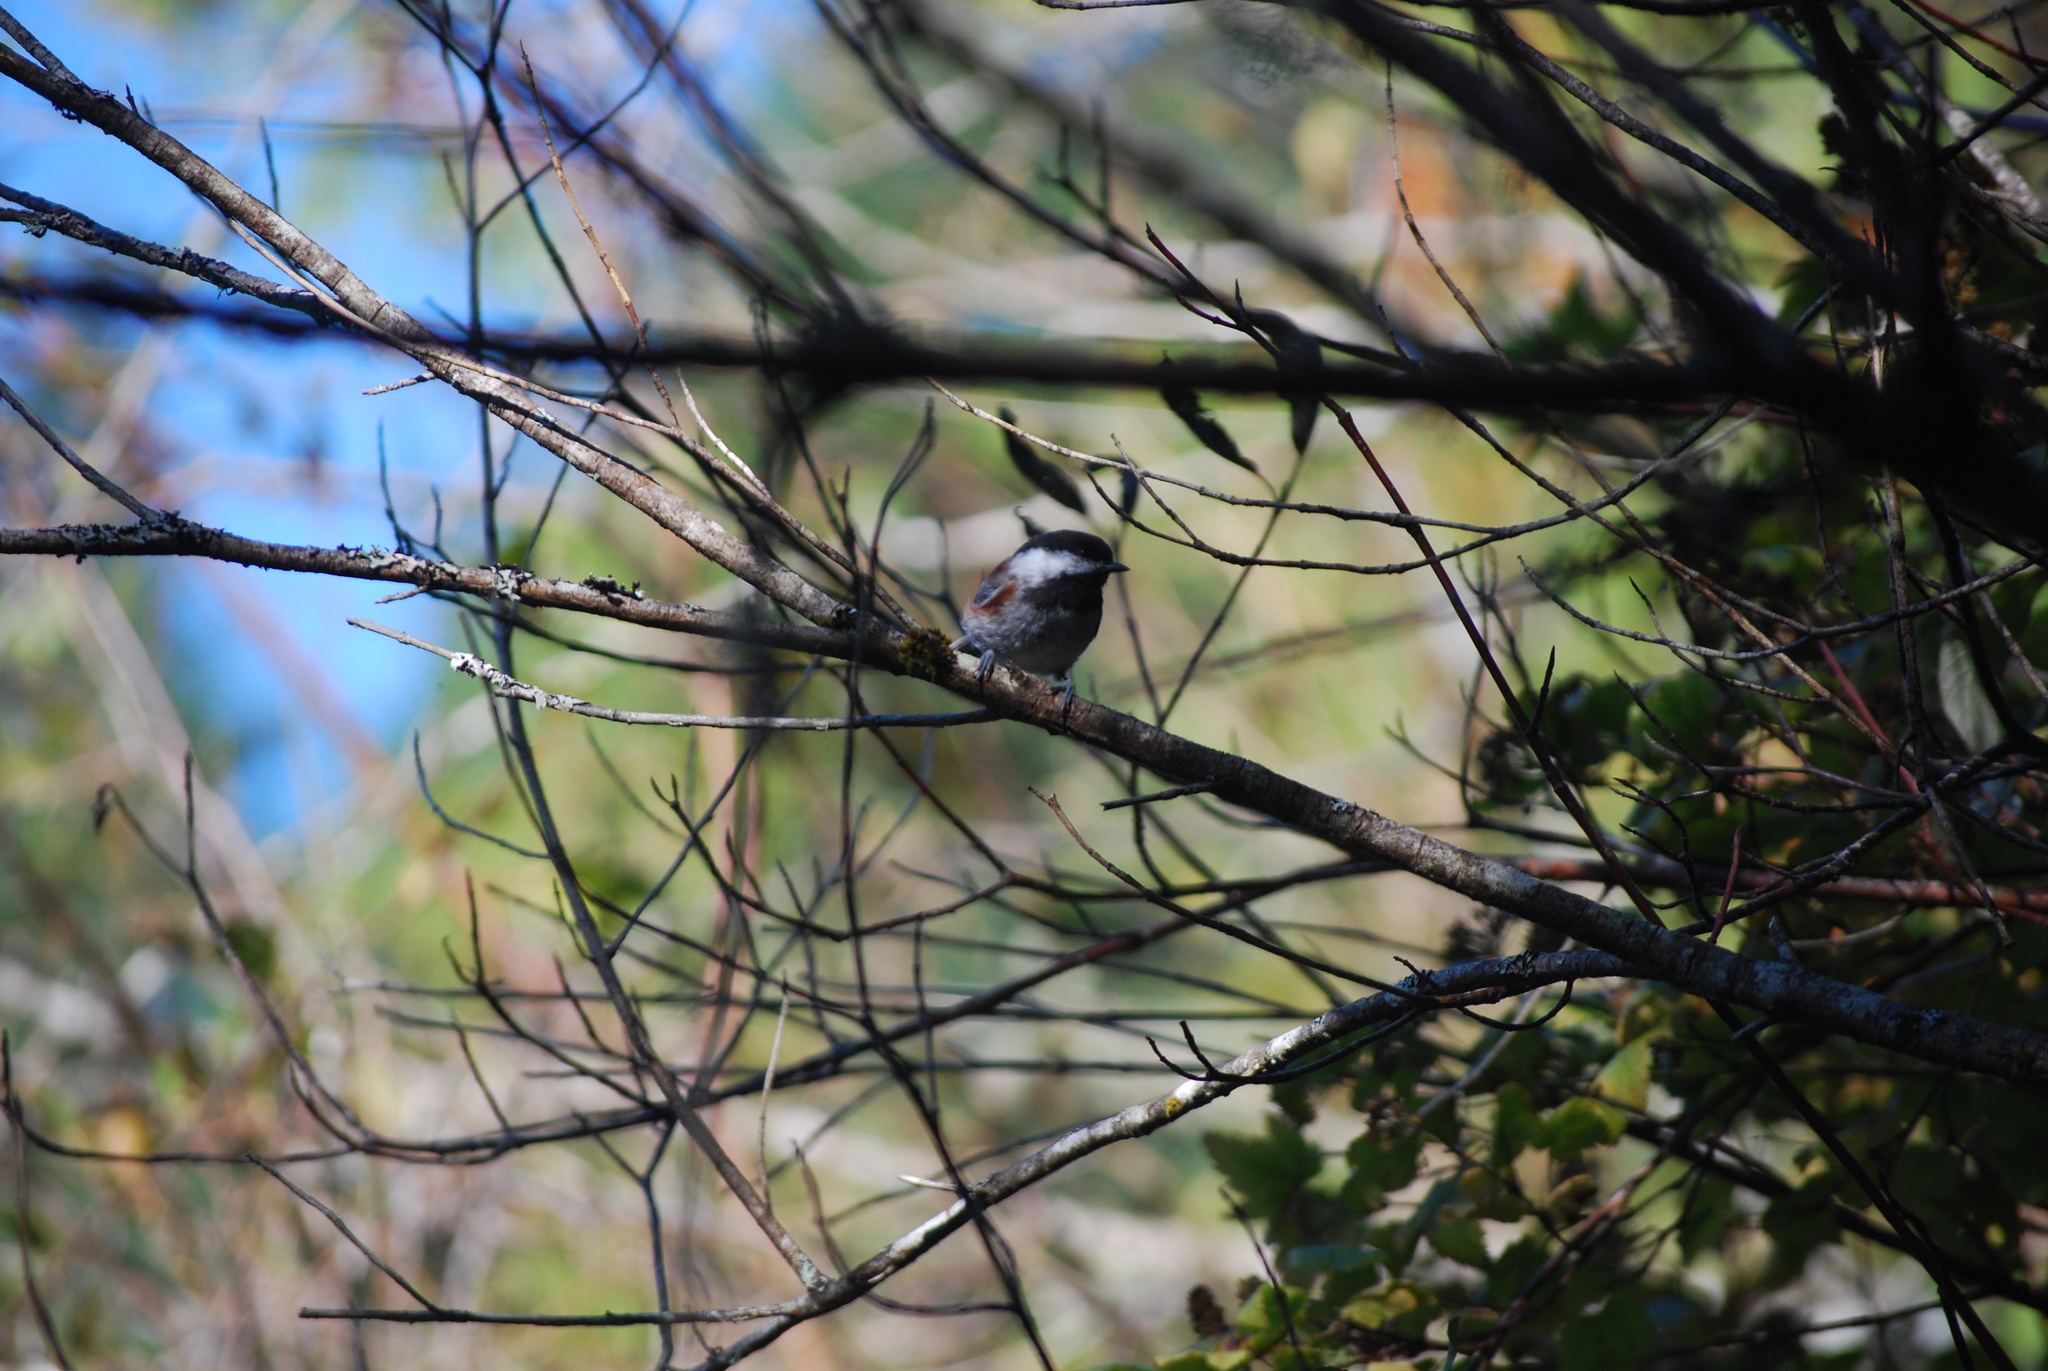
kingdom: Animalia
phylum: Chordata
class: Aves
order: Passeriformes
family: Paridae
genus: Poecile
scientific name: Poecile rufescens
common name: Chestnut-backed chickadee
